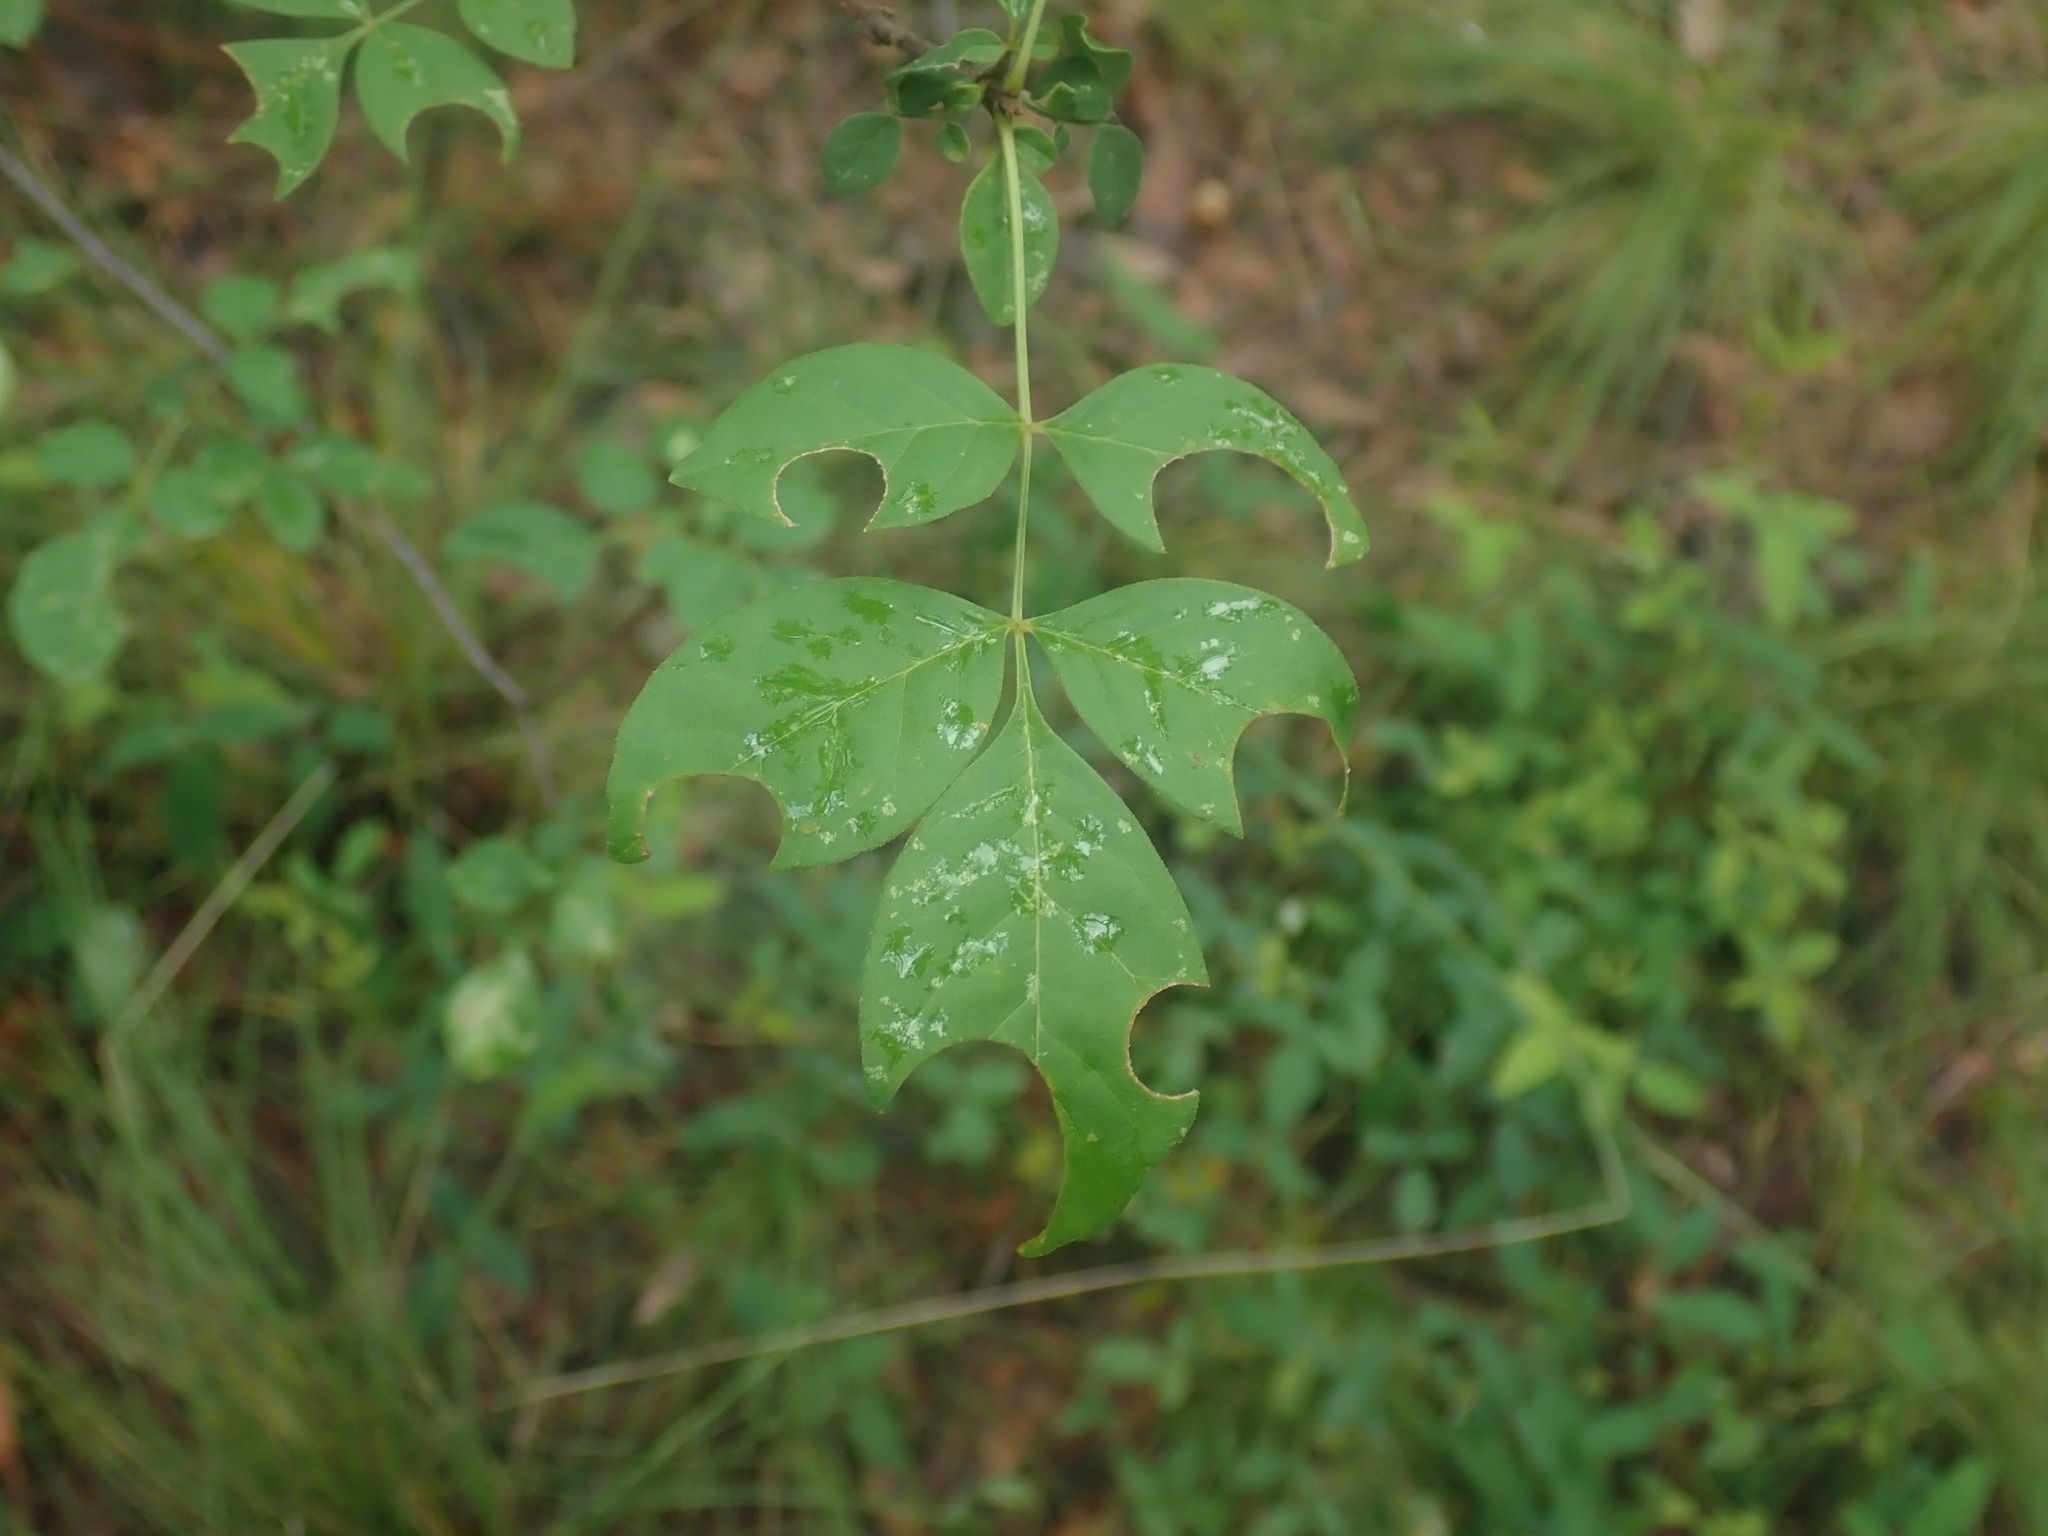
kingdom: Animalia
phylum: Arthropoda
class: Insecta
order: Hymenoptera
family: Megachilidae
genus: Megachile
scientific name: Megachile
